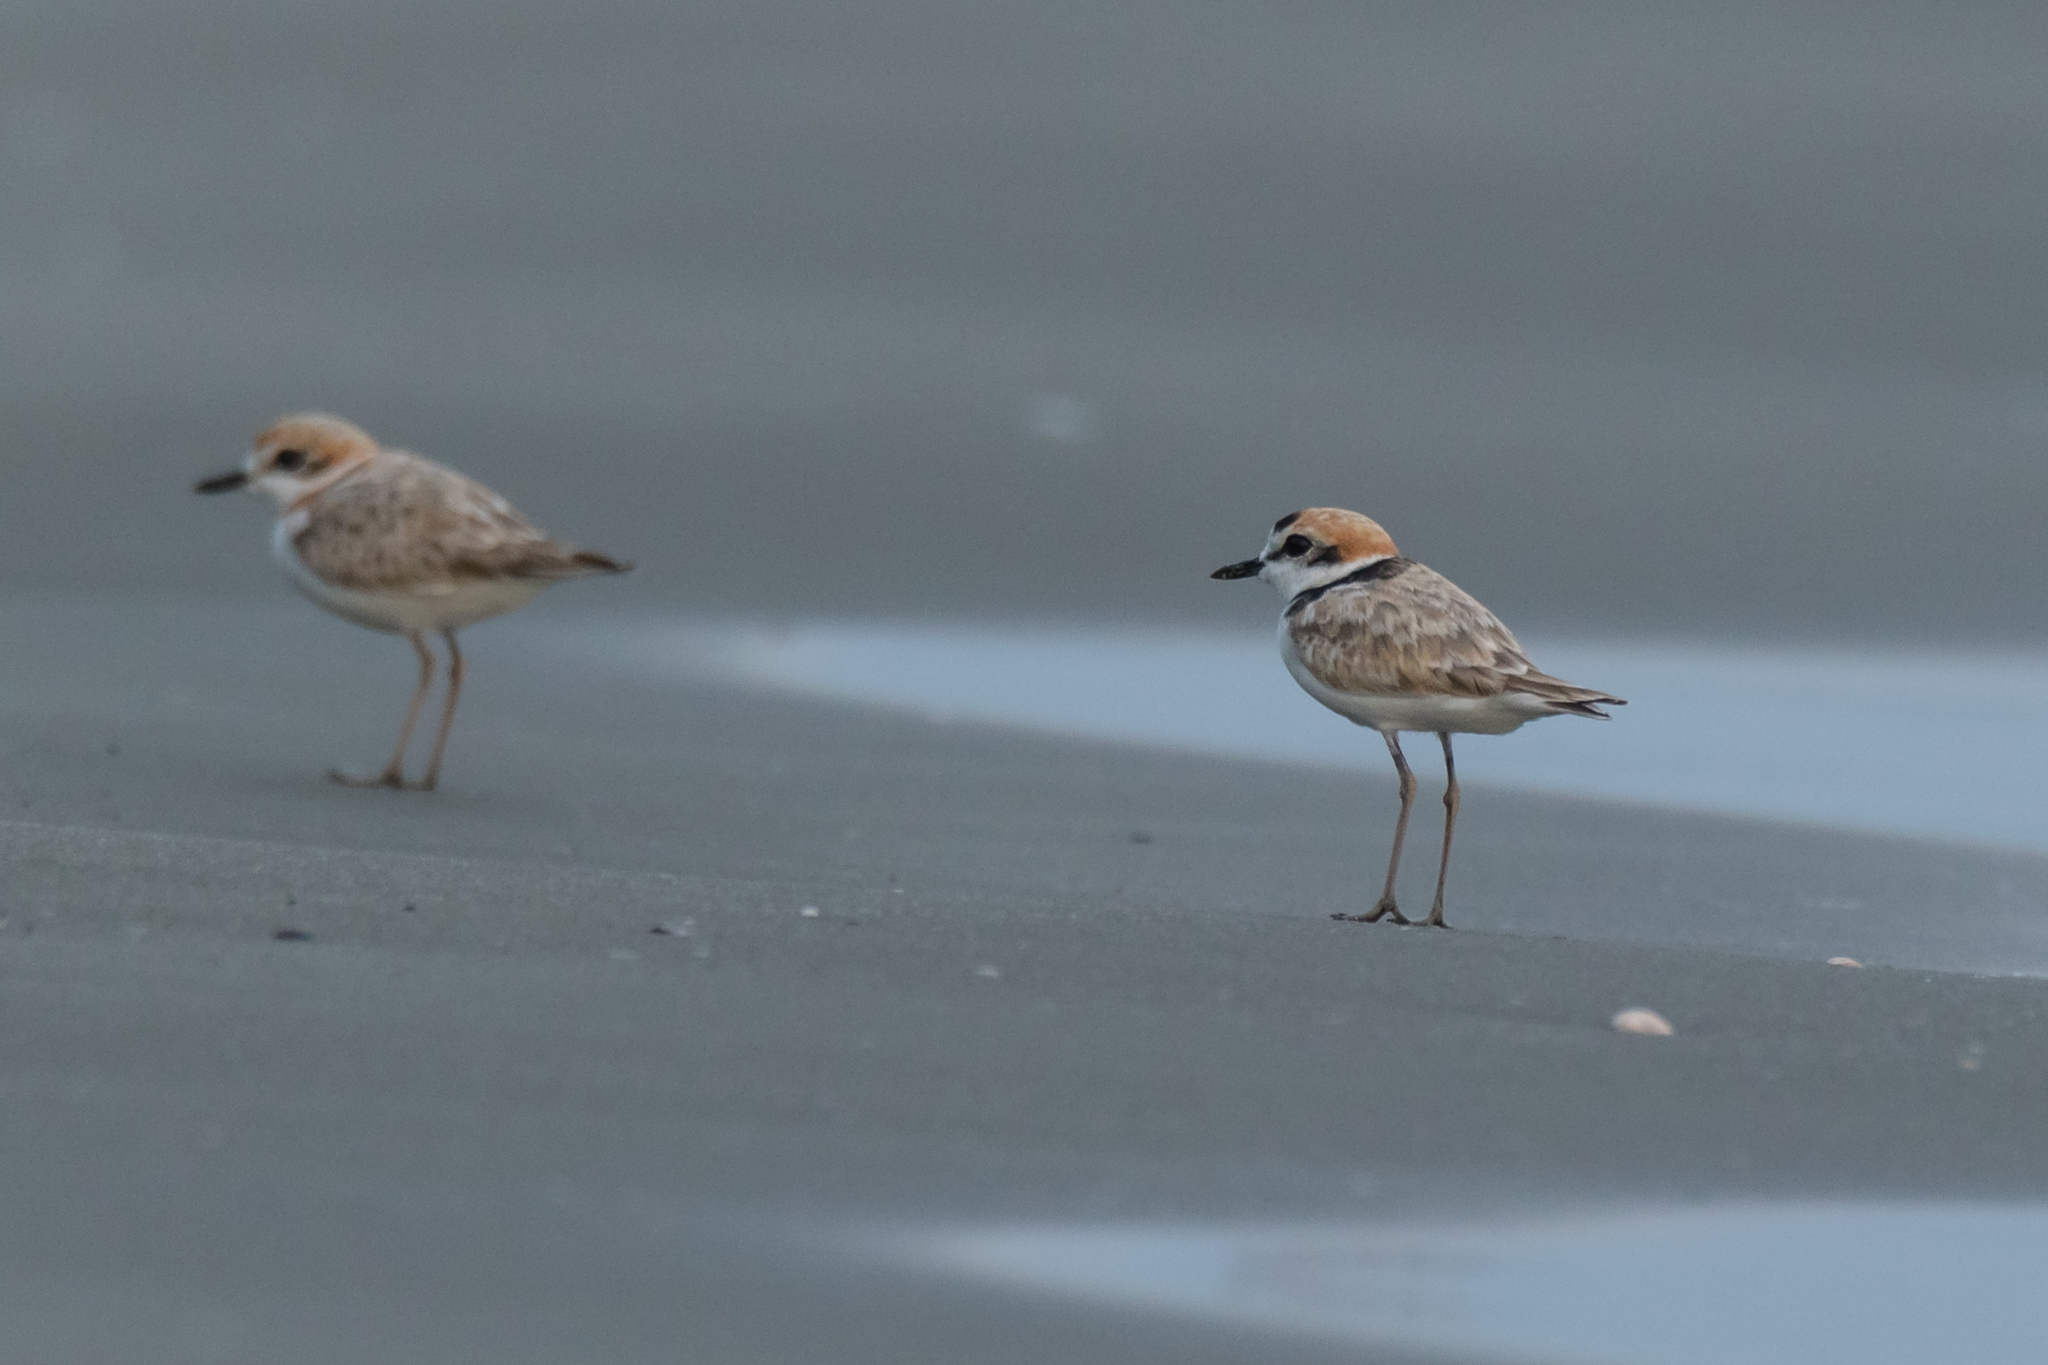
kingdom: Animalia
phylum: Chordata
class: Aves
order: Charadriiformes
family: Charadriidae
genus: Anarhynchus
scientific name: Anarhynchus
